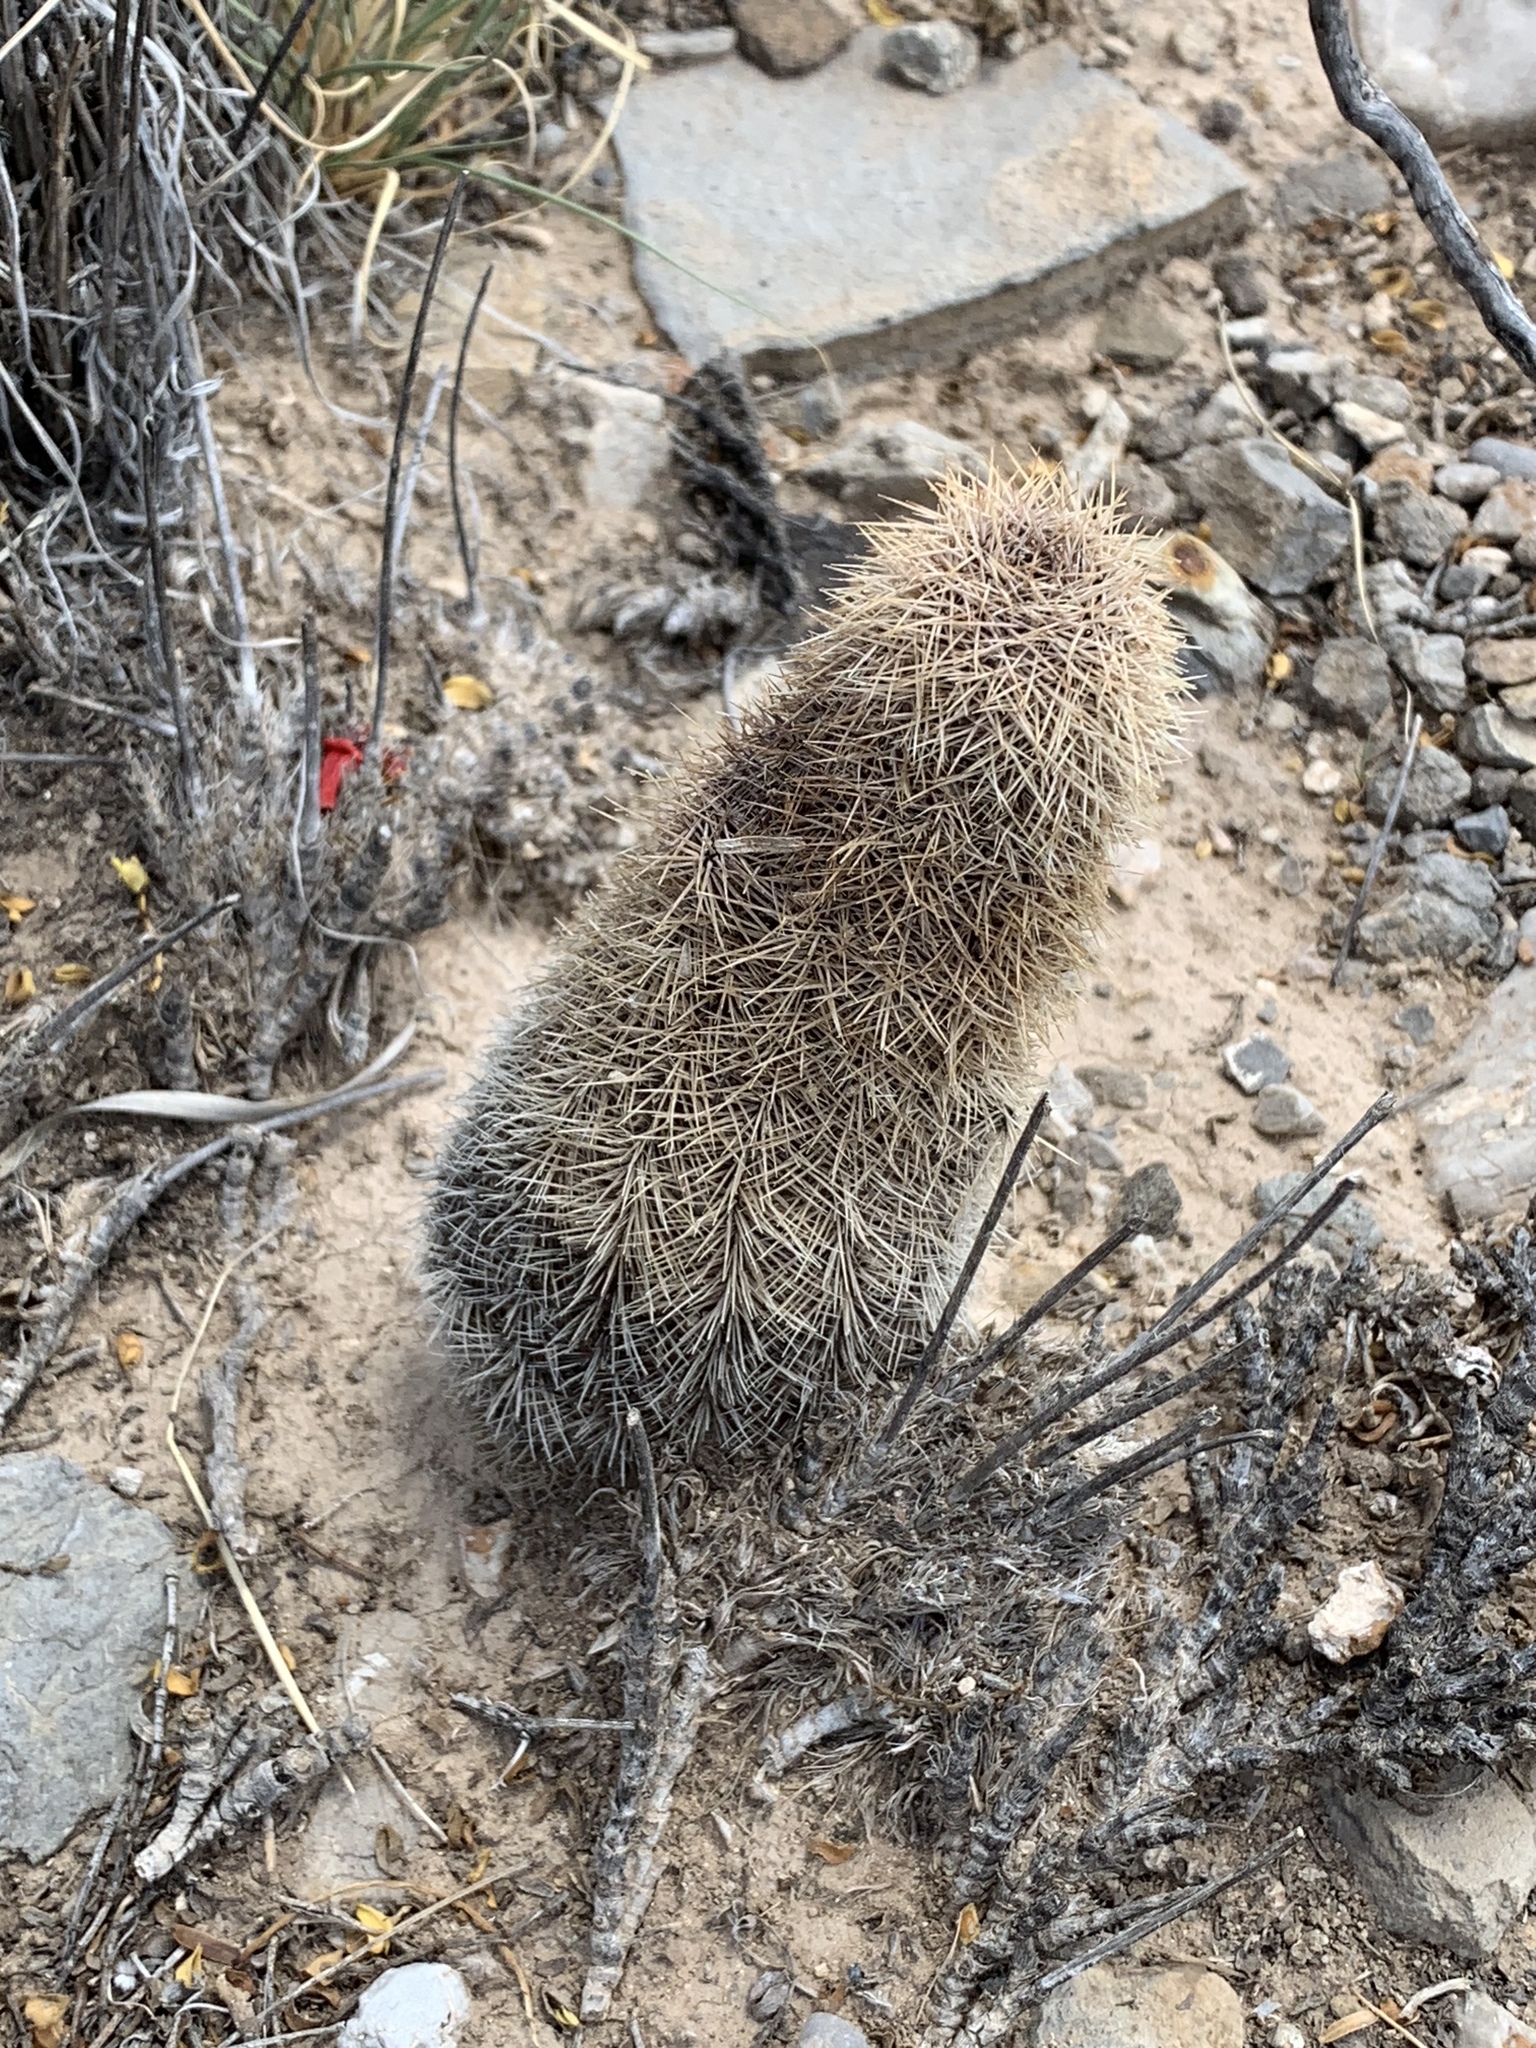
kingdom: Plantae
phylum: Tracheophyta
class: Magnoliopsida
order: Caryophyllales
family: Cactaceae
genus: Echinocereus
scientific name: Echinocereus dasyacanthus
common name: Spiny hedgehog cactus
